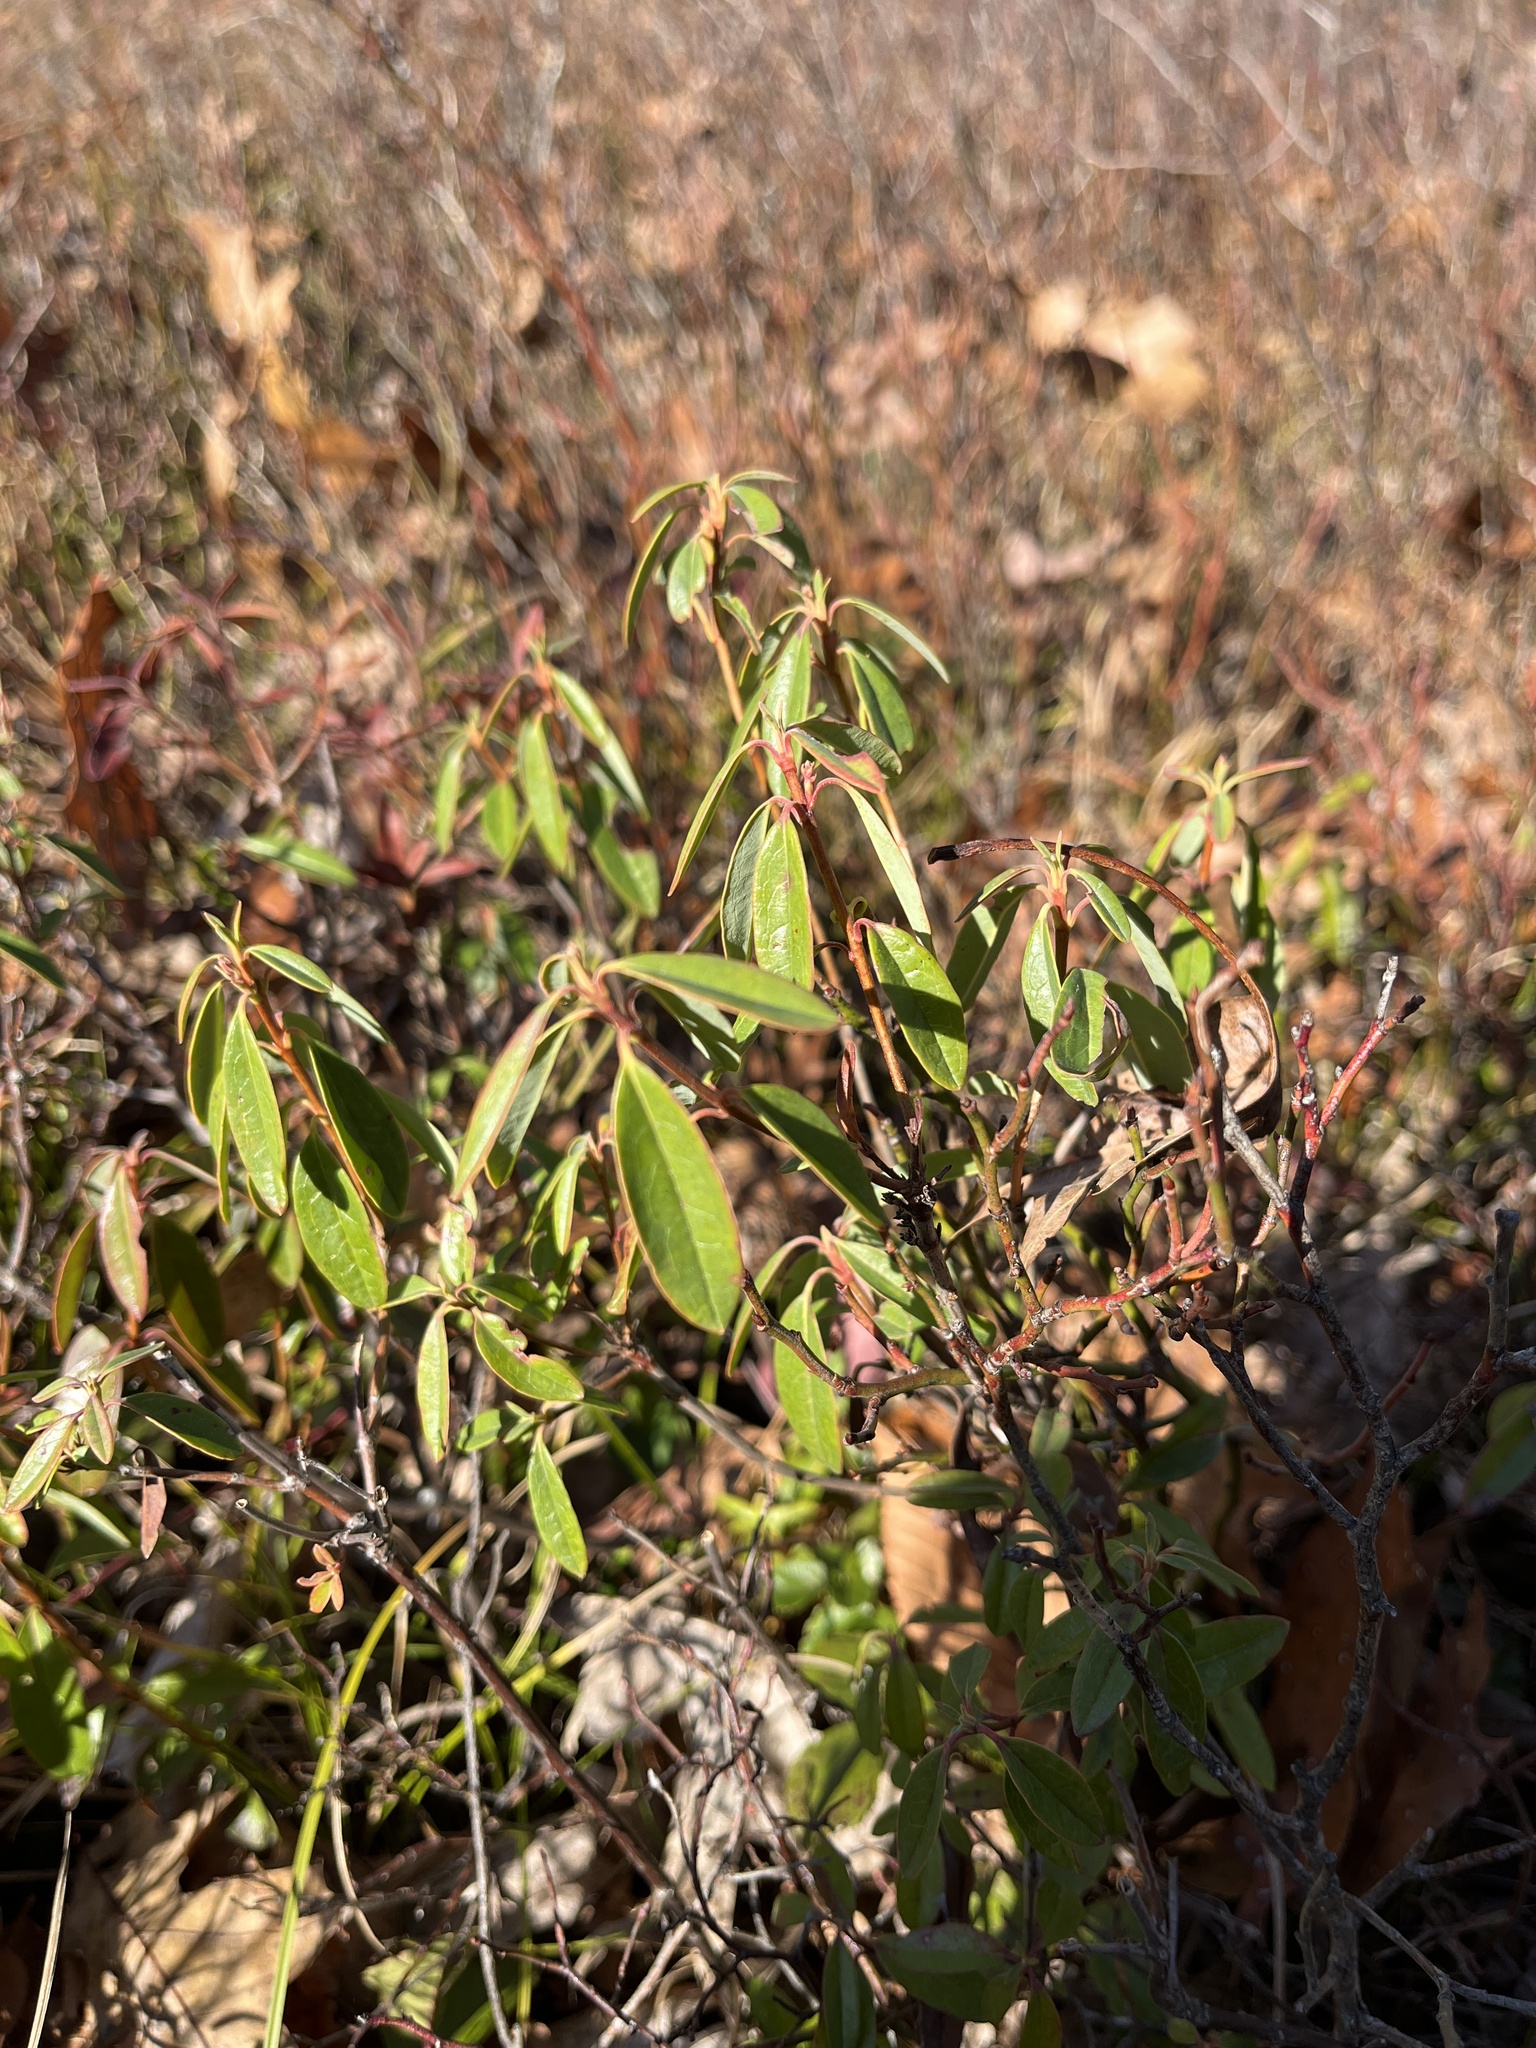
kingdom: Plantae
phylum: Tracheophyta
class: Magnoliopsida
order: Ericales
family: Ericaceae
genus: Kalmia
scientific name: Kalmia angustifolia
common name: Sheep-laurel
